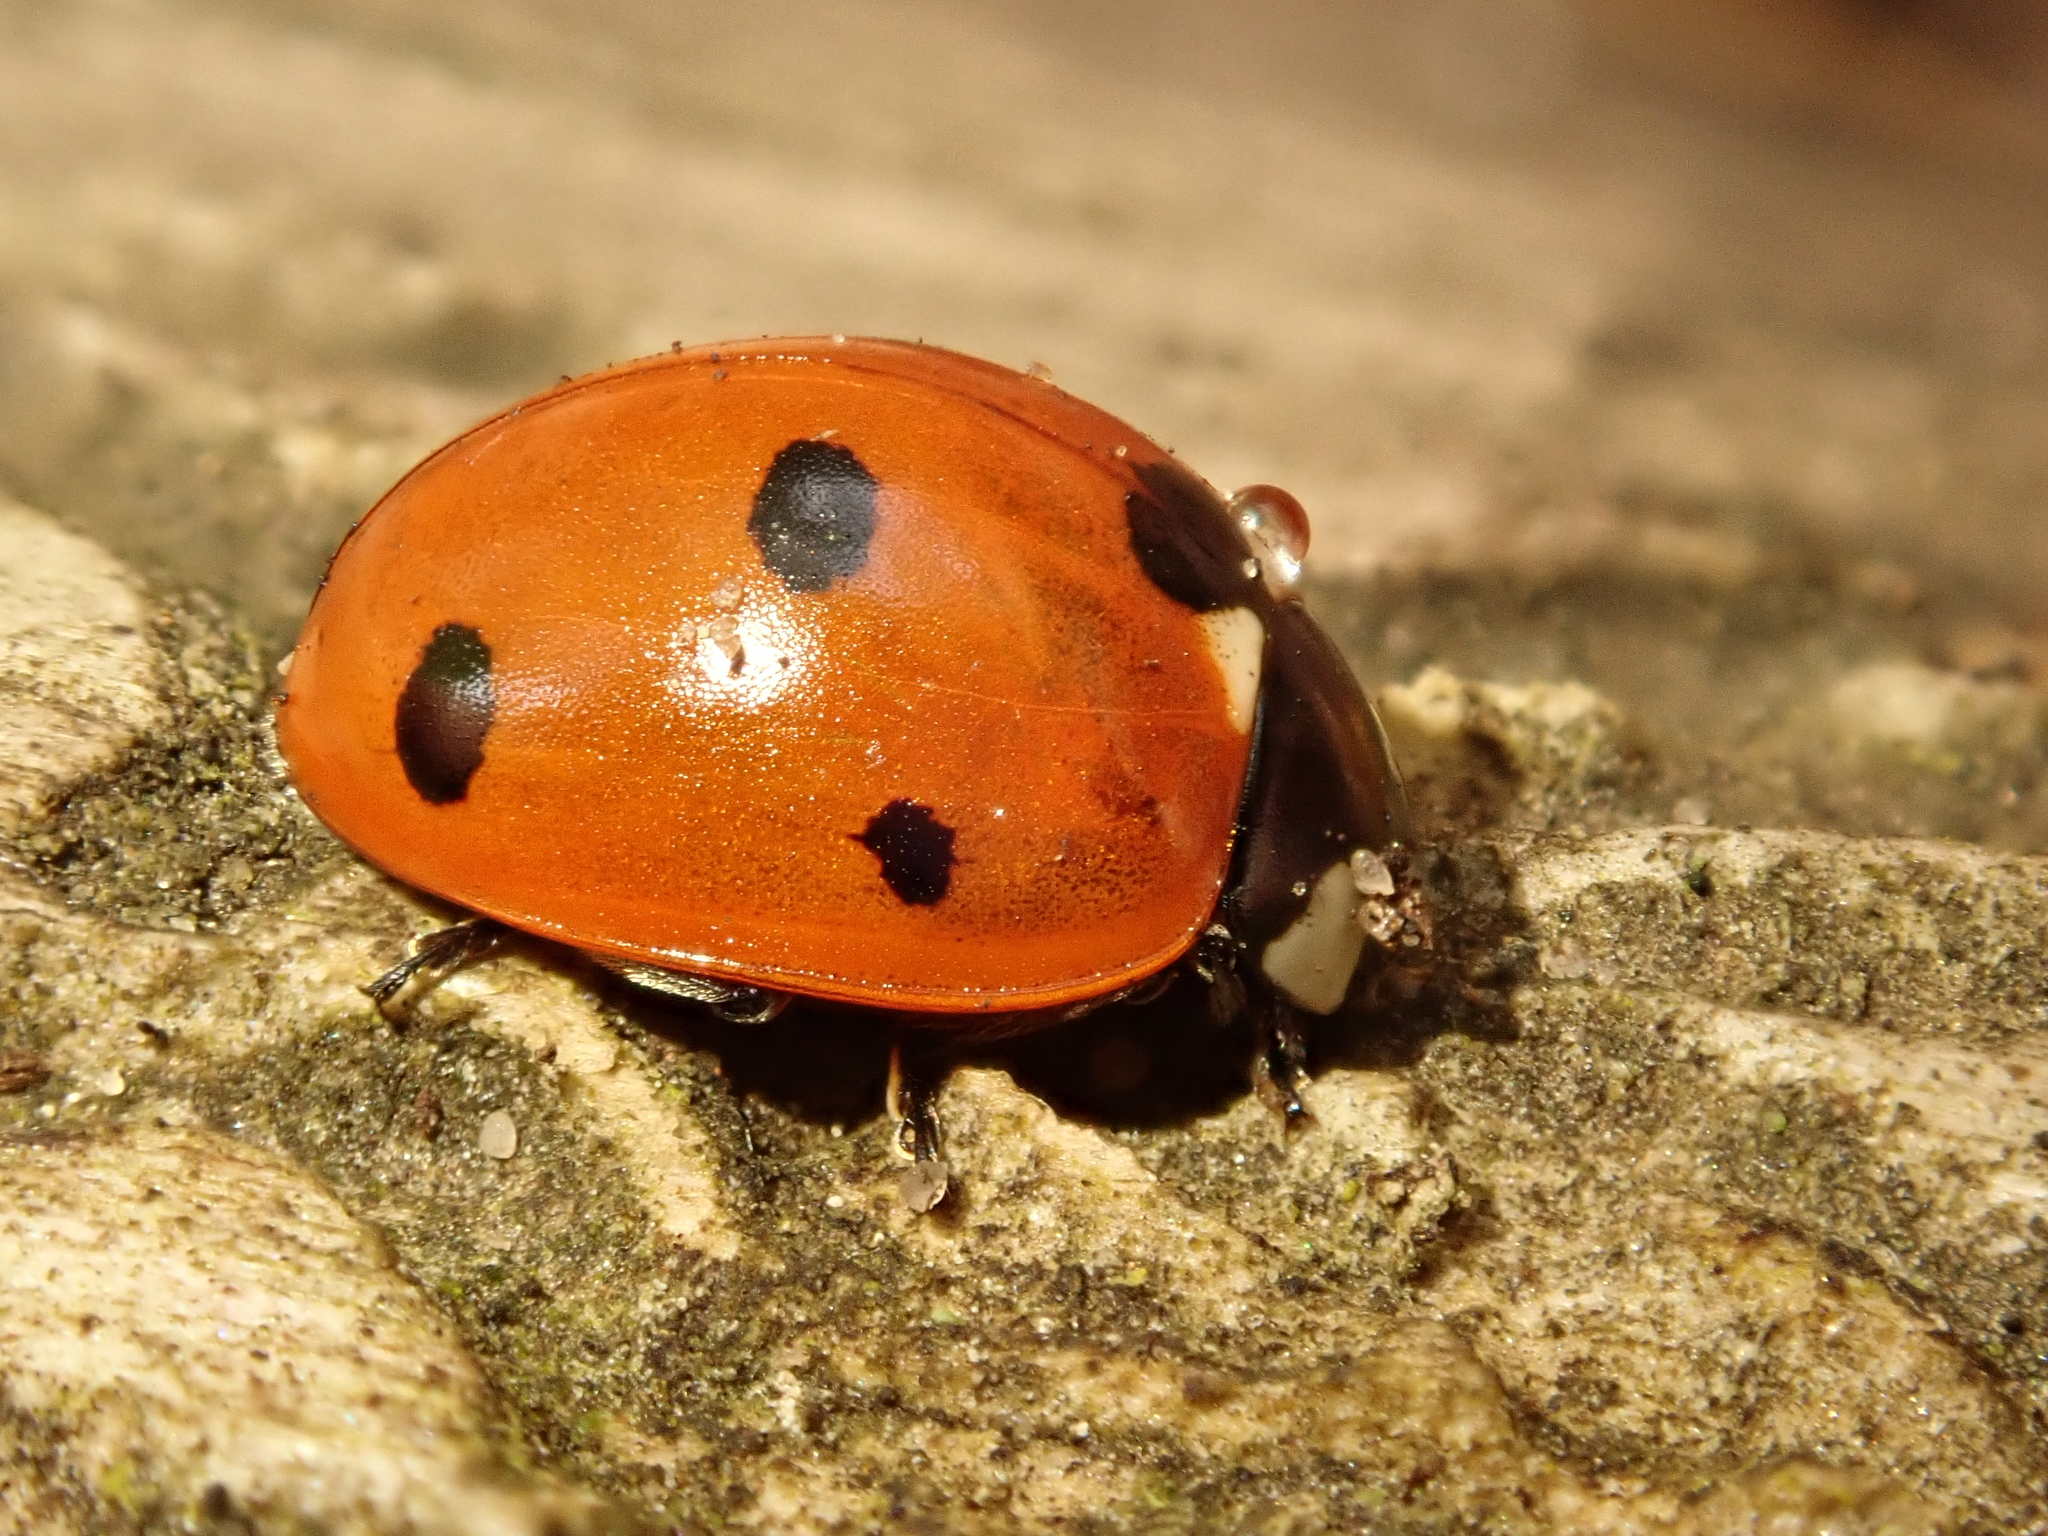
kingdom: Animalia
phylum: Arthropoda
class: Insecta
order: Coleoptera
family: Coccinellidae
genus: Coccinella
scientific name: Coccinella septempunctata
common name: Sevenspotted lady beetle
